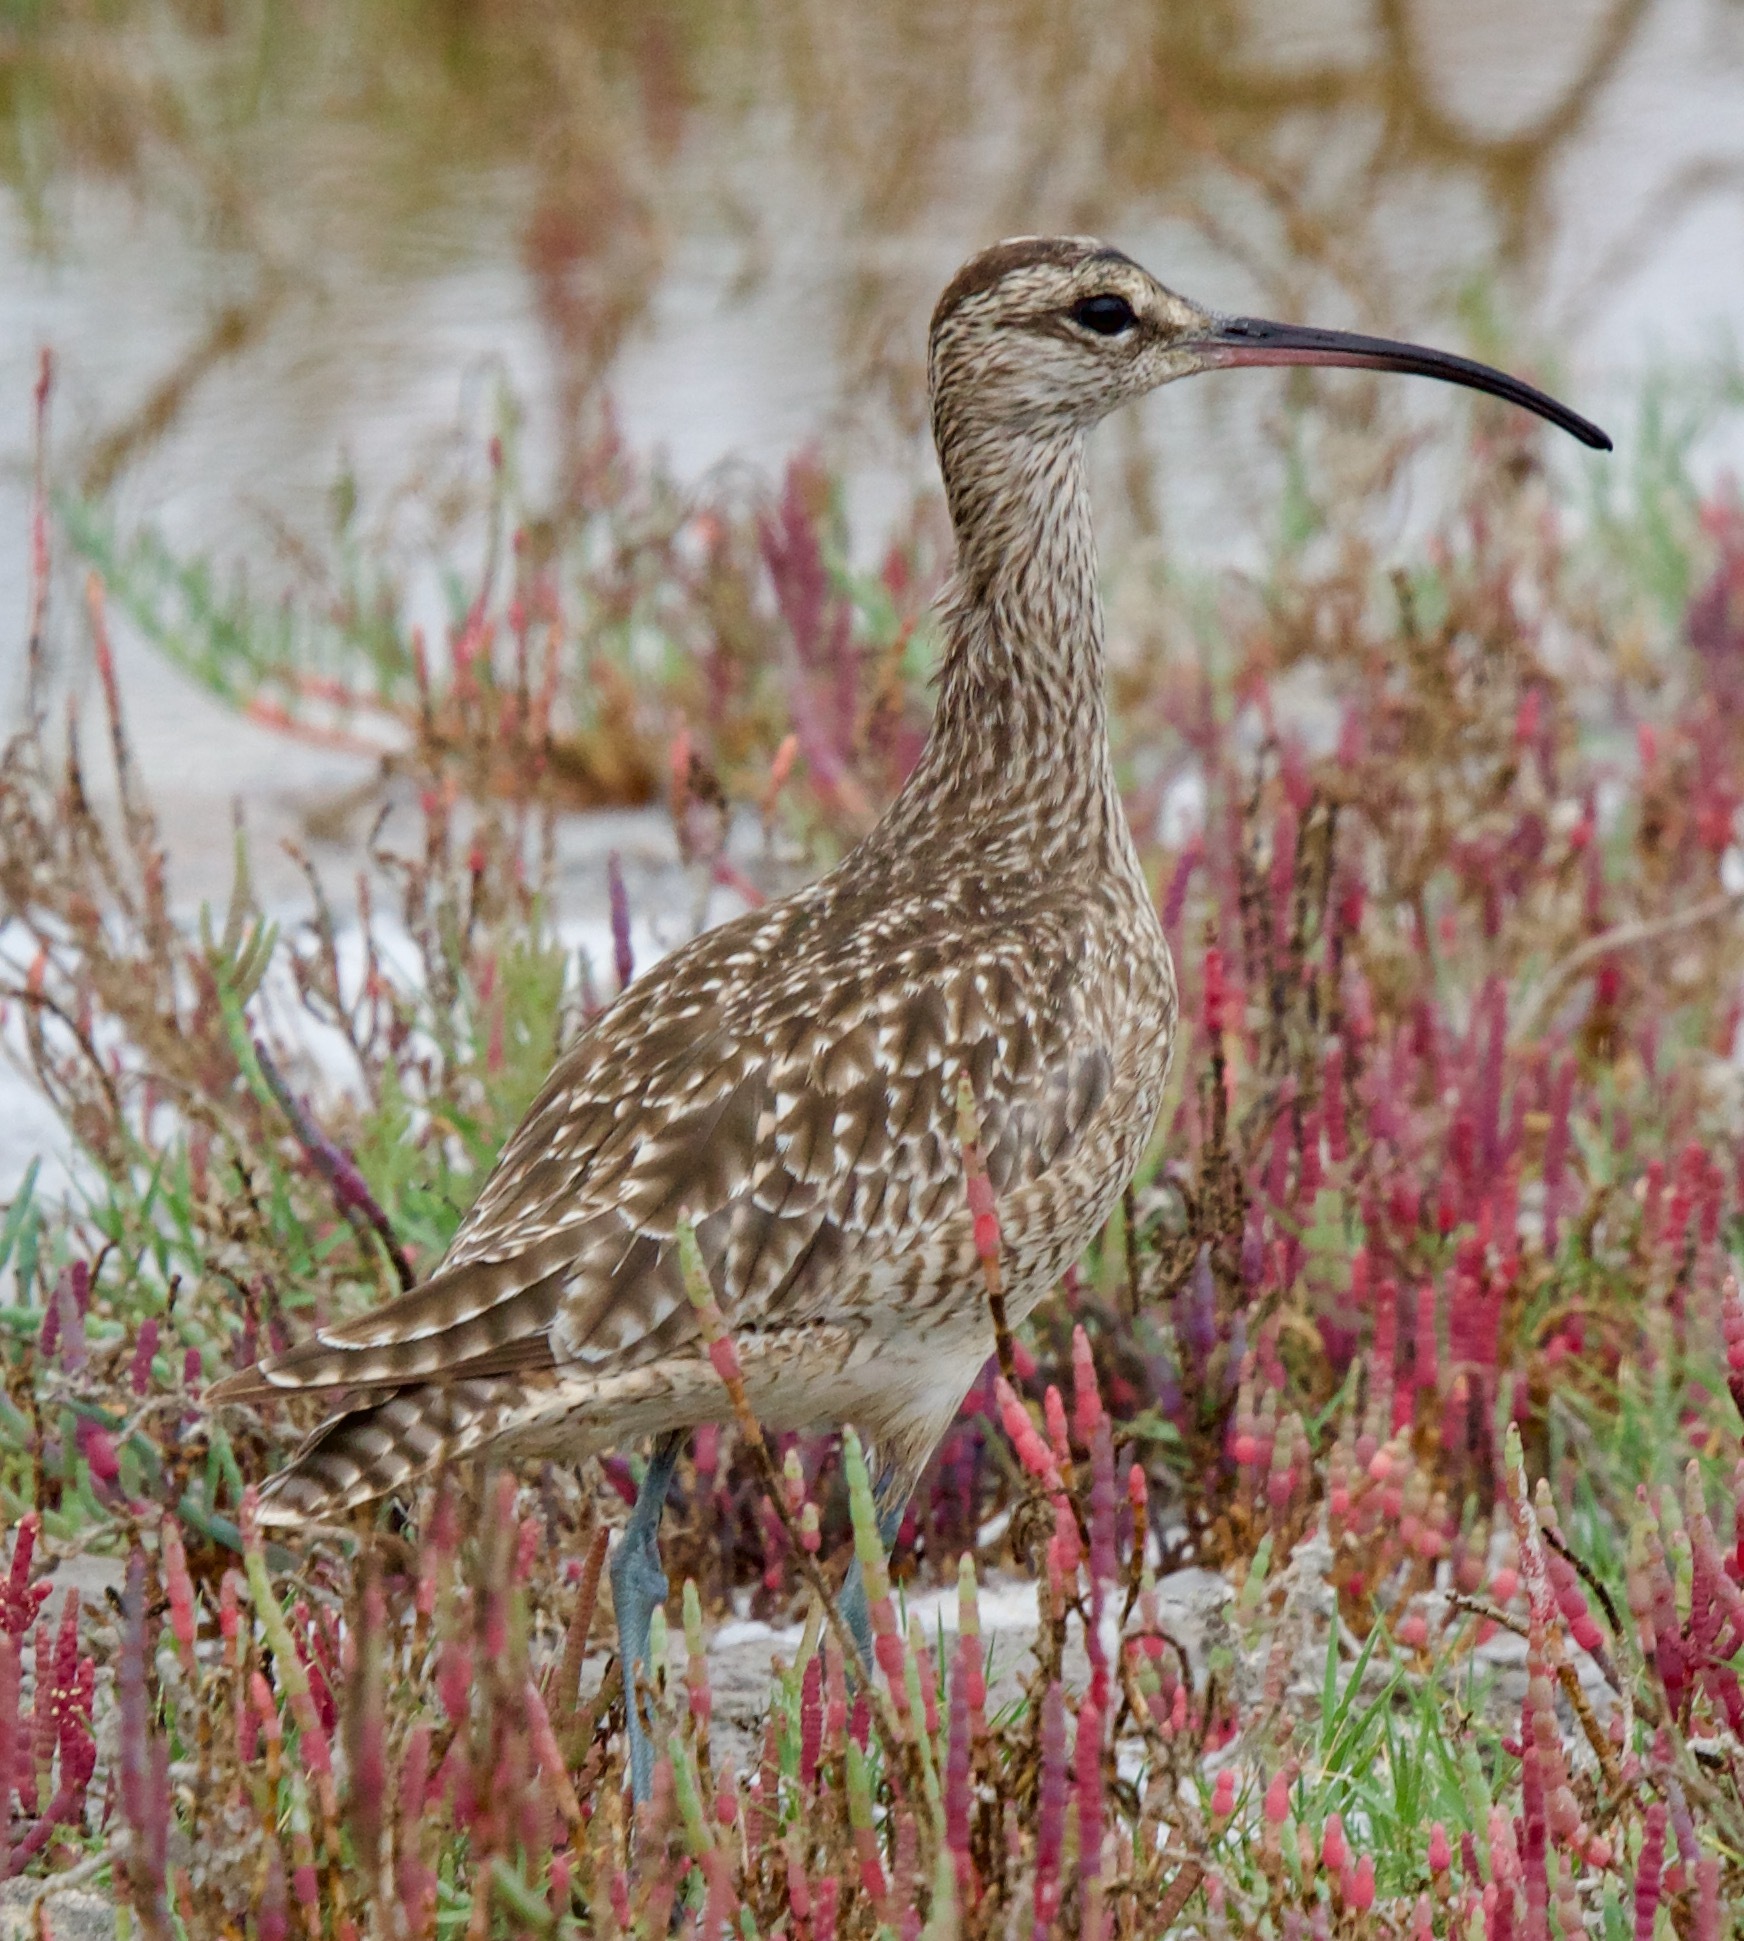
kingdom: Animalia
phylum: Chordata
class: Aves
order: Charadriiformes
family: Scolopacidae
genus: Numenius
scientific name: Numenius phaeopus
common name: Whimbrel
